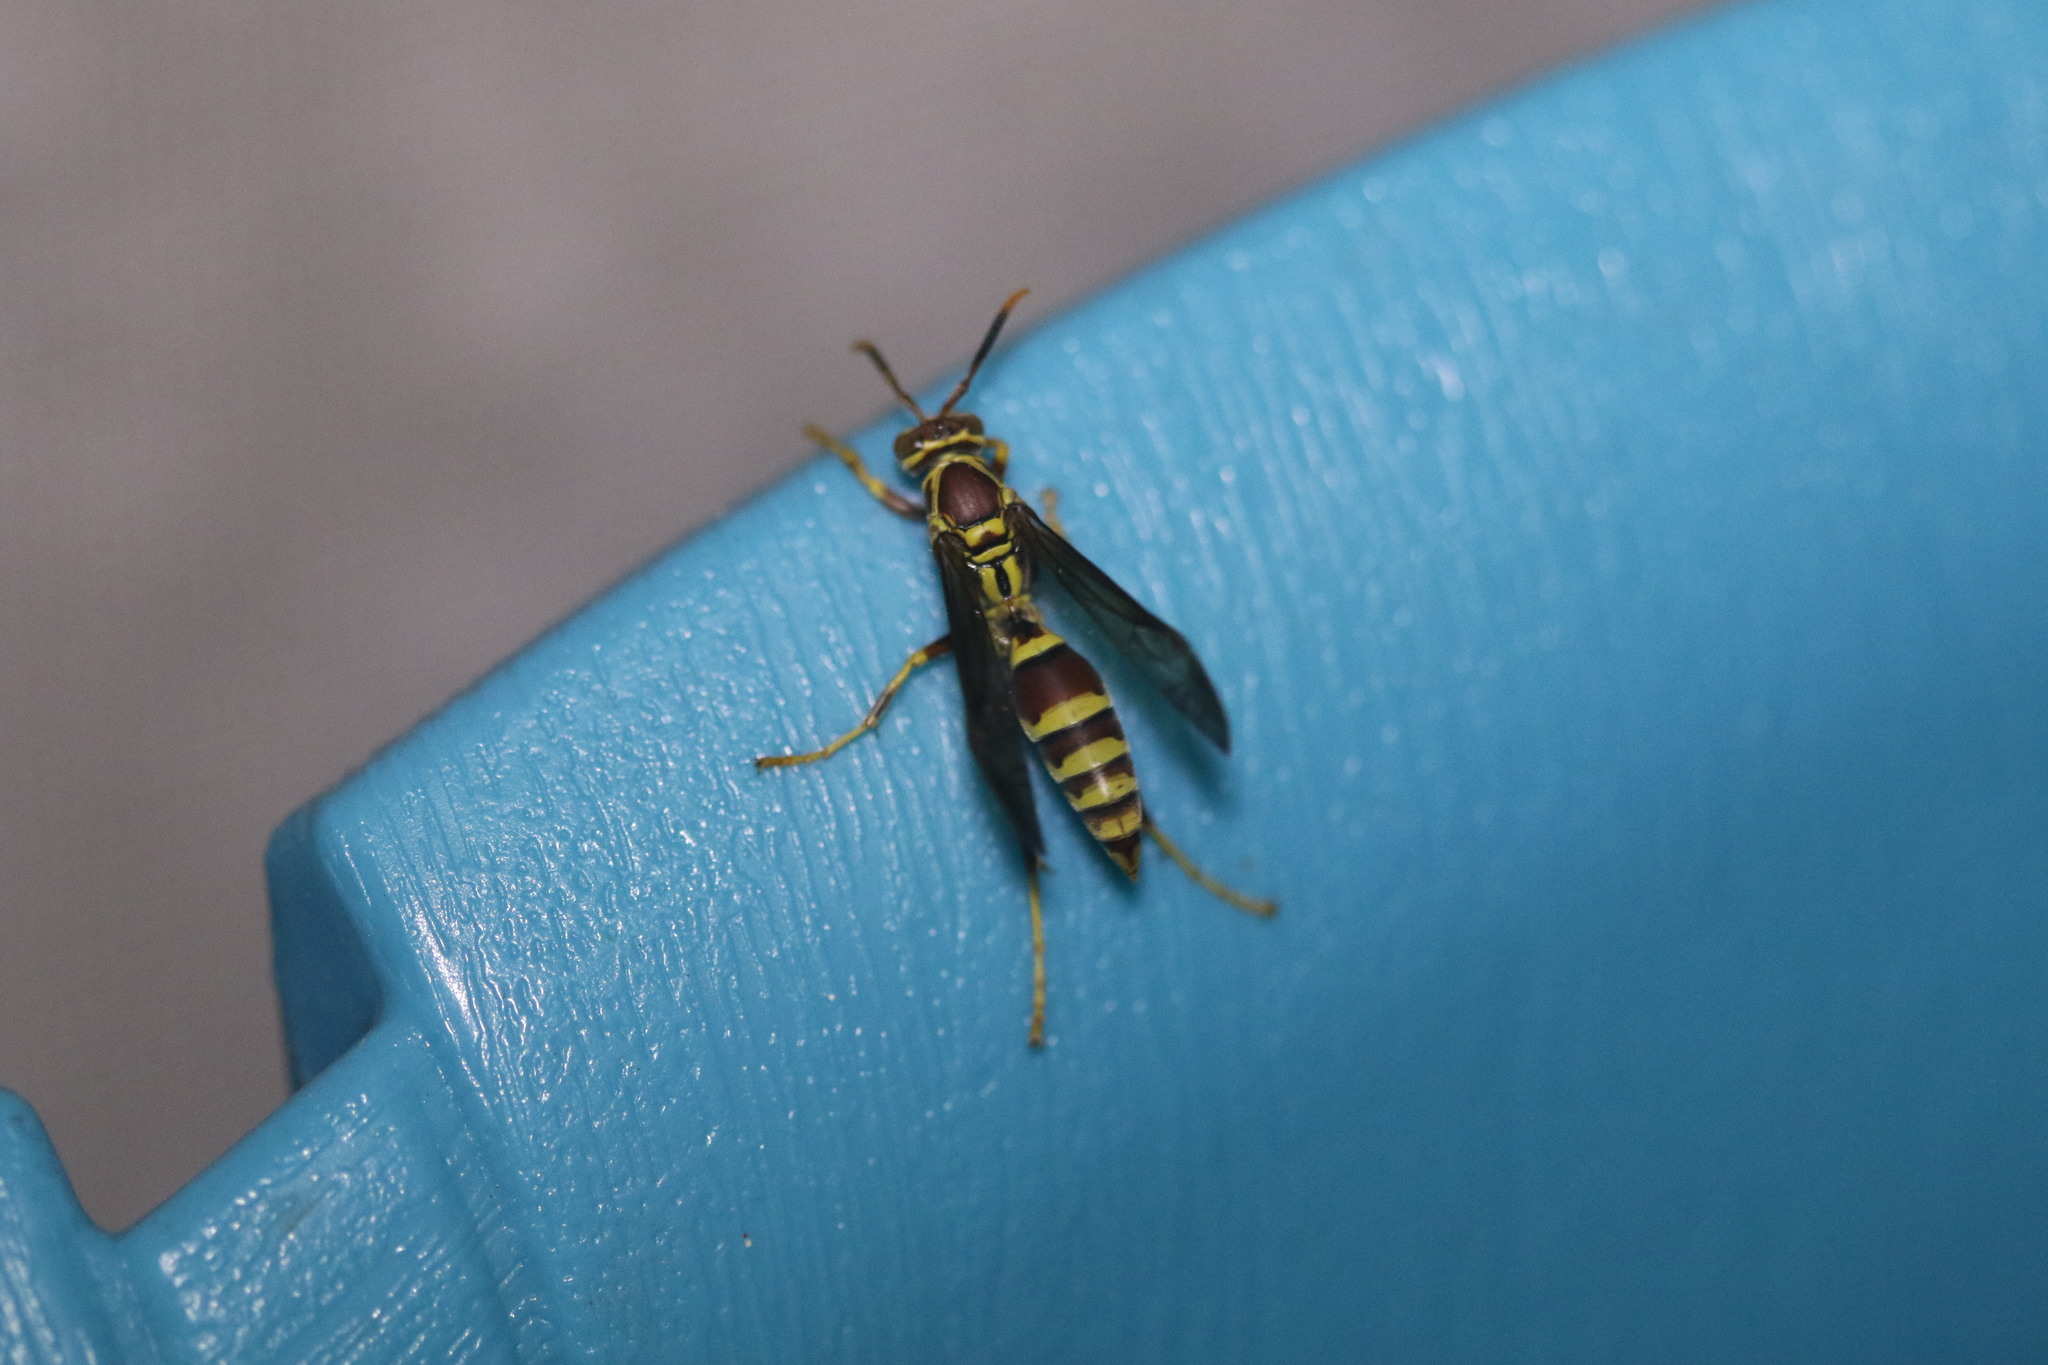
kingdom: Animalia
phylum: Arthropoda
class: Insecta
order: Hymenoptera
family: Eumenidae
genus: Polistes
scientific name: Polistes exclamans
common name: Paper wasp
